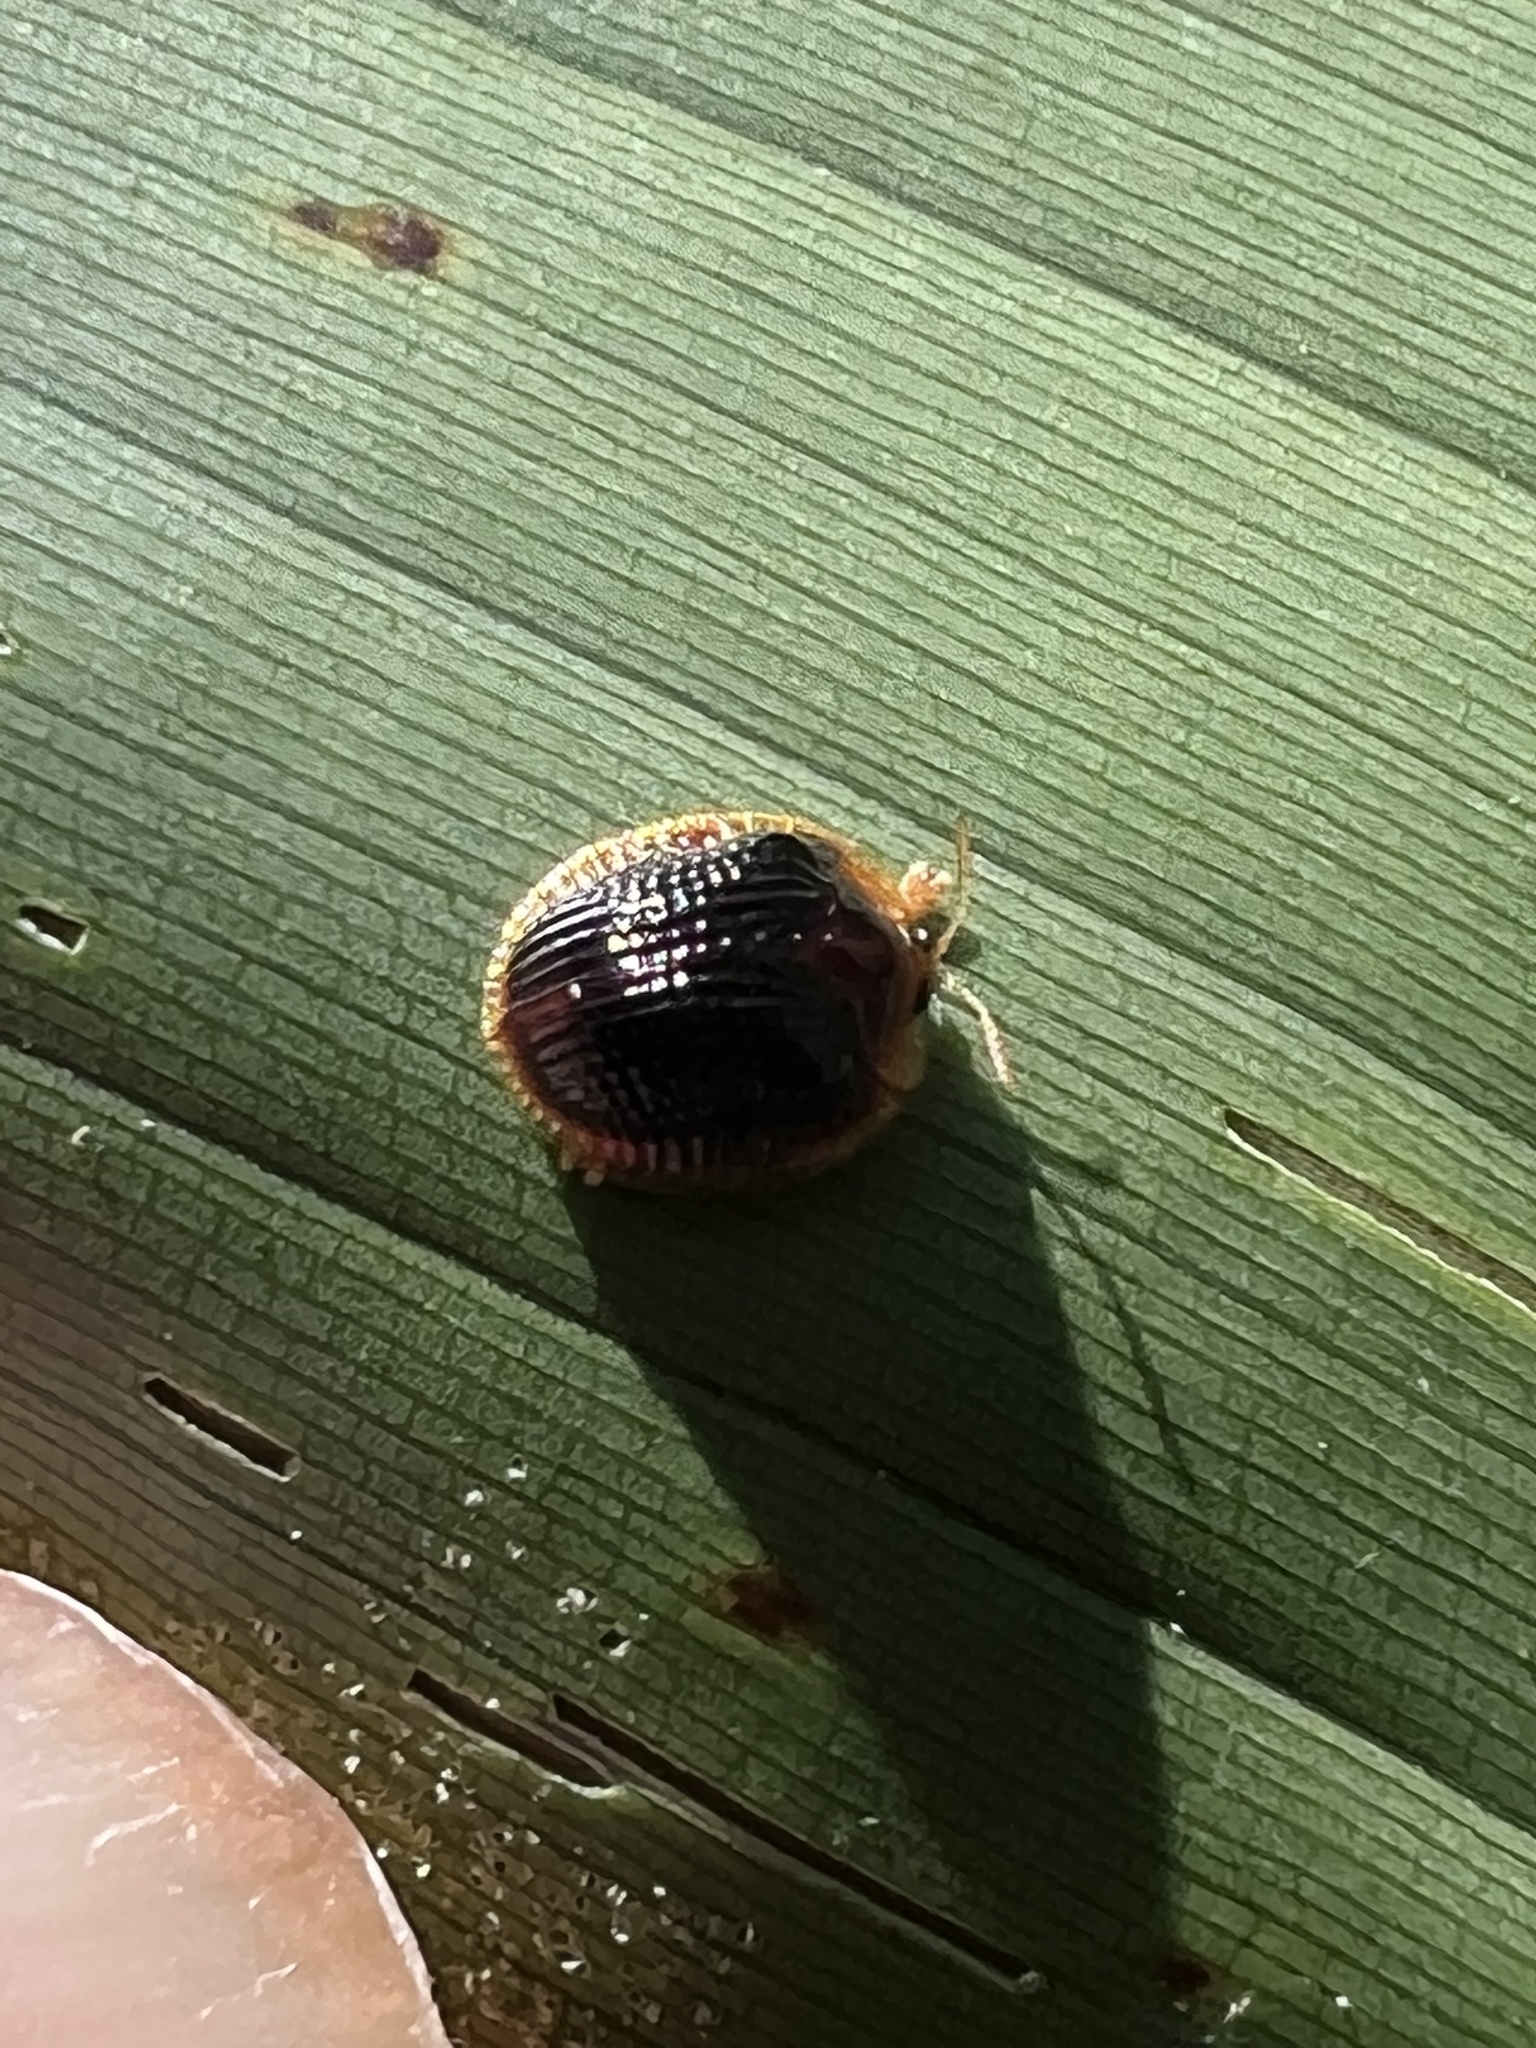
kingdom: Animalia
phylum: Arthropoda
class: Insecta
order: Coleoptera
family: Chrysomelidae
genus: Spaethiella
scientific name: Spaethiella circumdata
